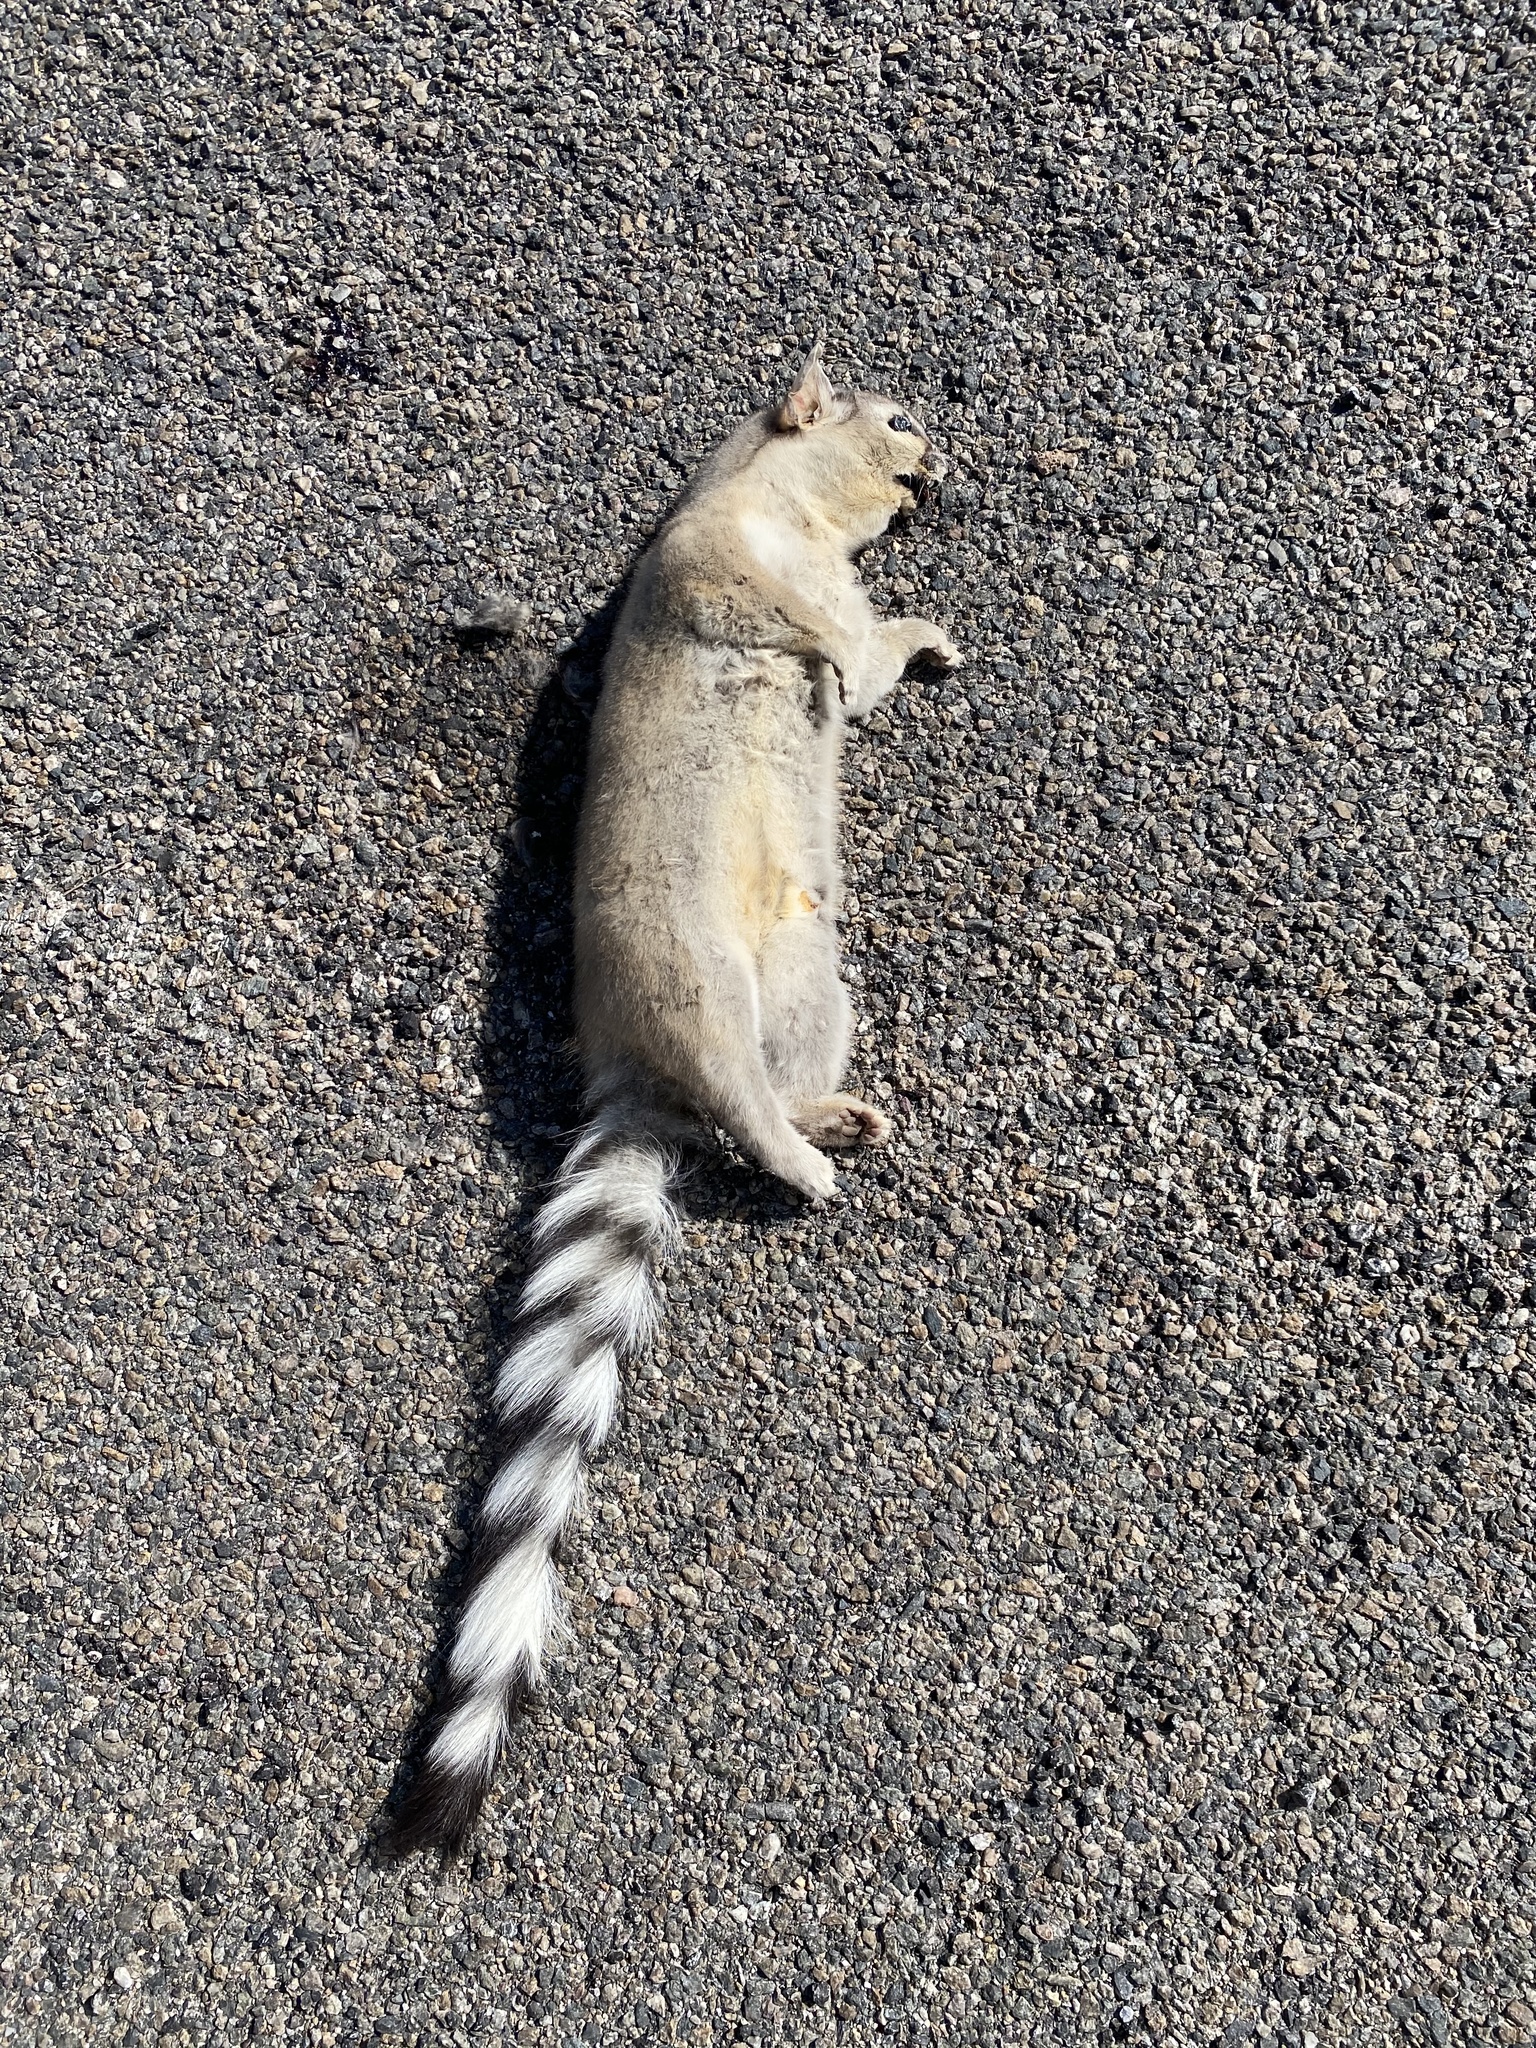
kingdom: Animalia
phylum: Chordata
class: Mammalia
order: Carnivora
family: Procyonidae
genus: Bassariscus
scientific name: Bassariscus astutus
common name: Ringtail
